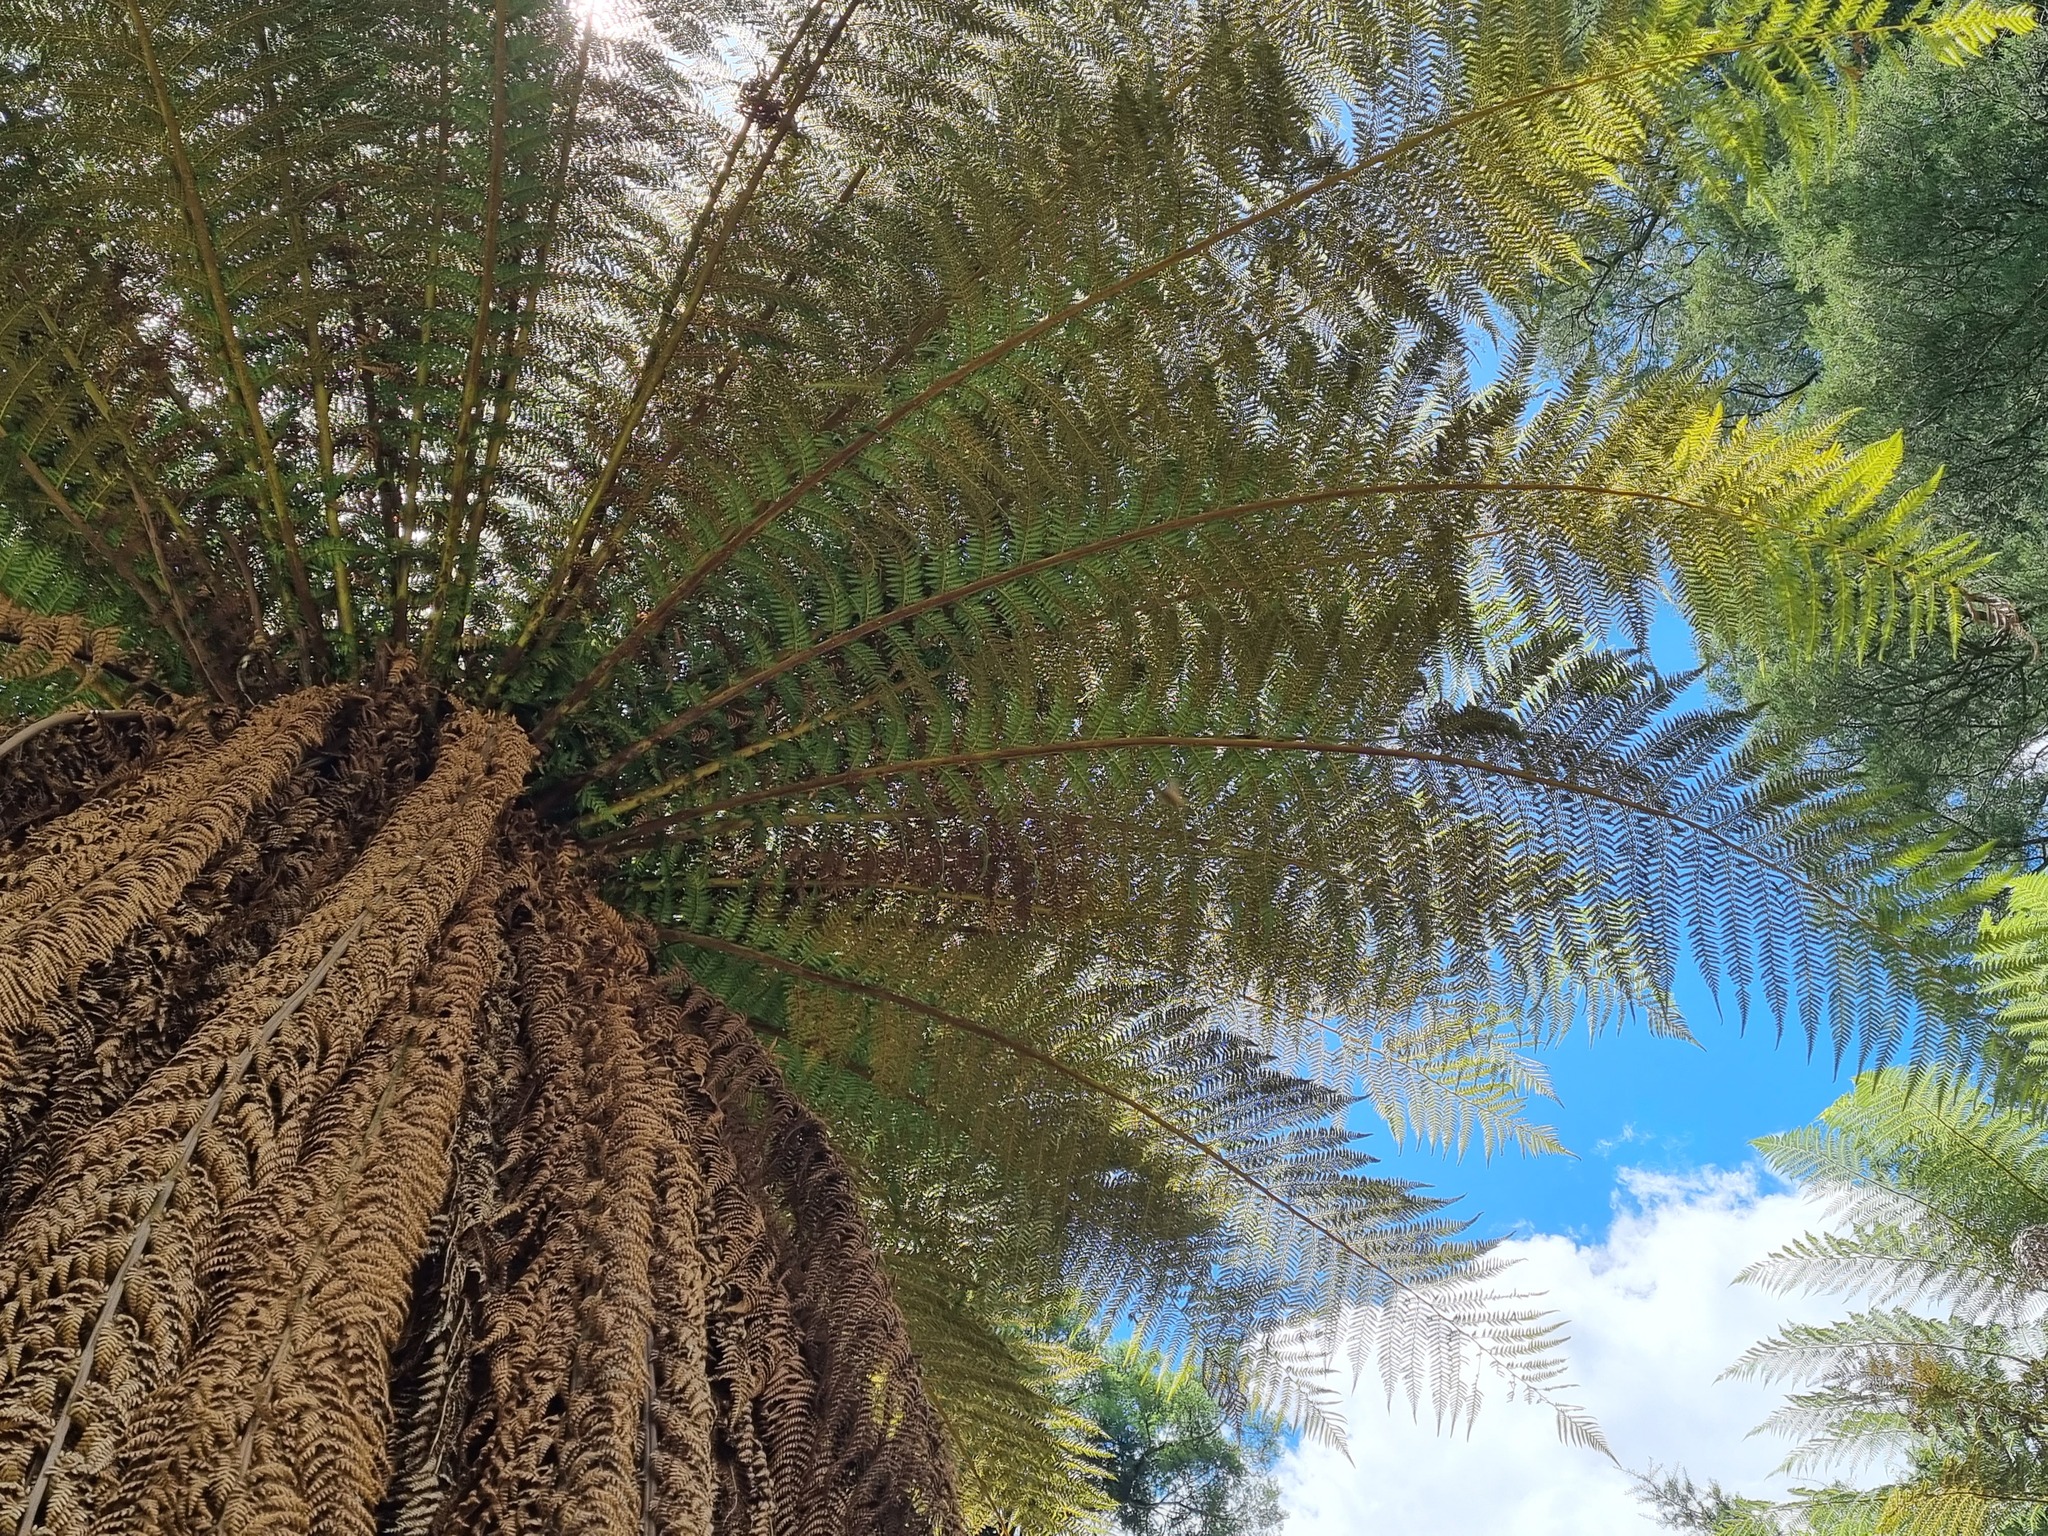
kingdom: Plantae
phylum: Tracheophyta
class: Polypodiopsida
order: Cyatheales
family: Dicksoniaceae
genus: Dicksonia
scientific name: Dicksonia fibrosa
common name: Golden tree fern
